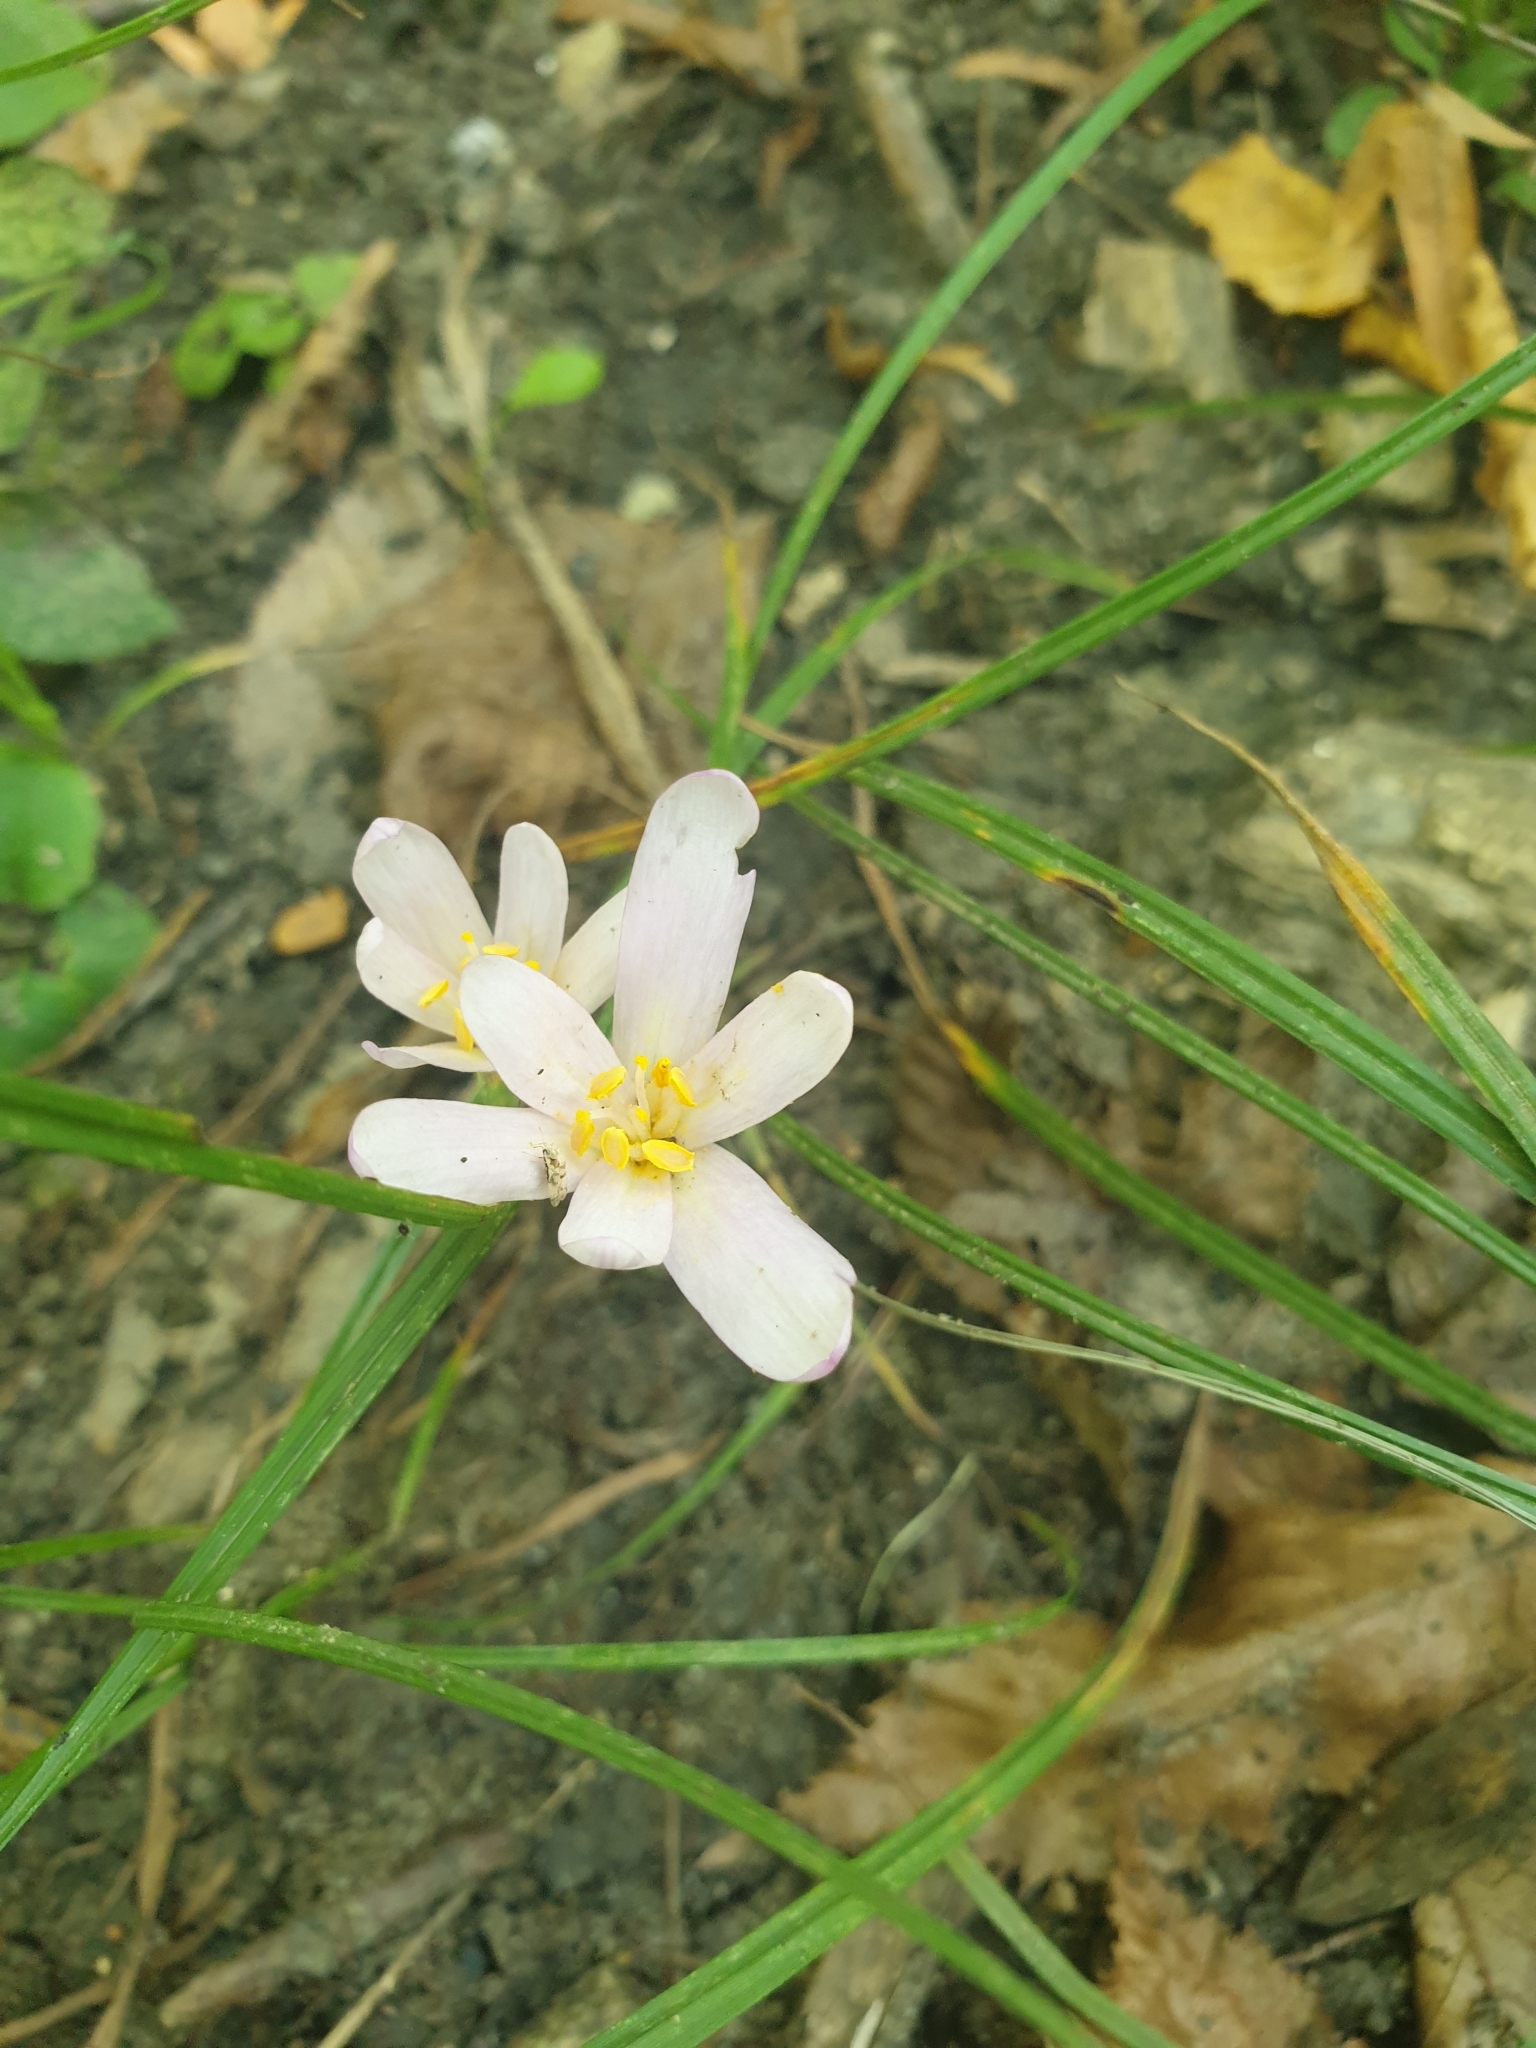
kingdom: Plantae
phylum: Tracheophyta
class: Liliopsida
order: Liliales
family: Colchicaceae
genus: Colchicum
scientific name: Colchicum umbrosum
